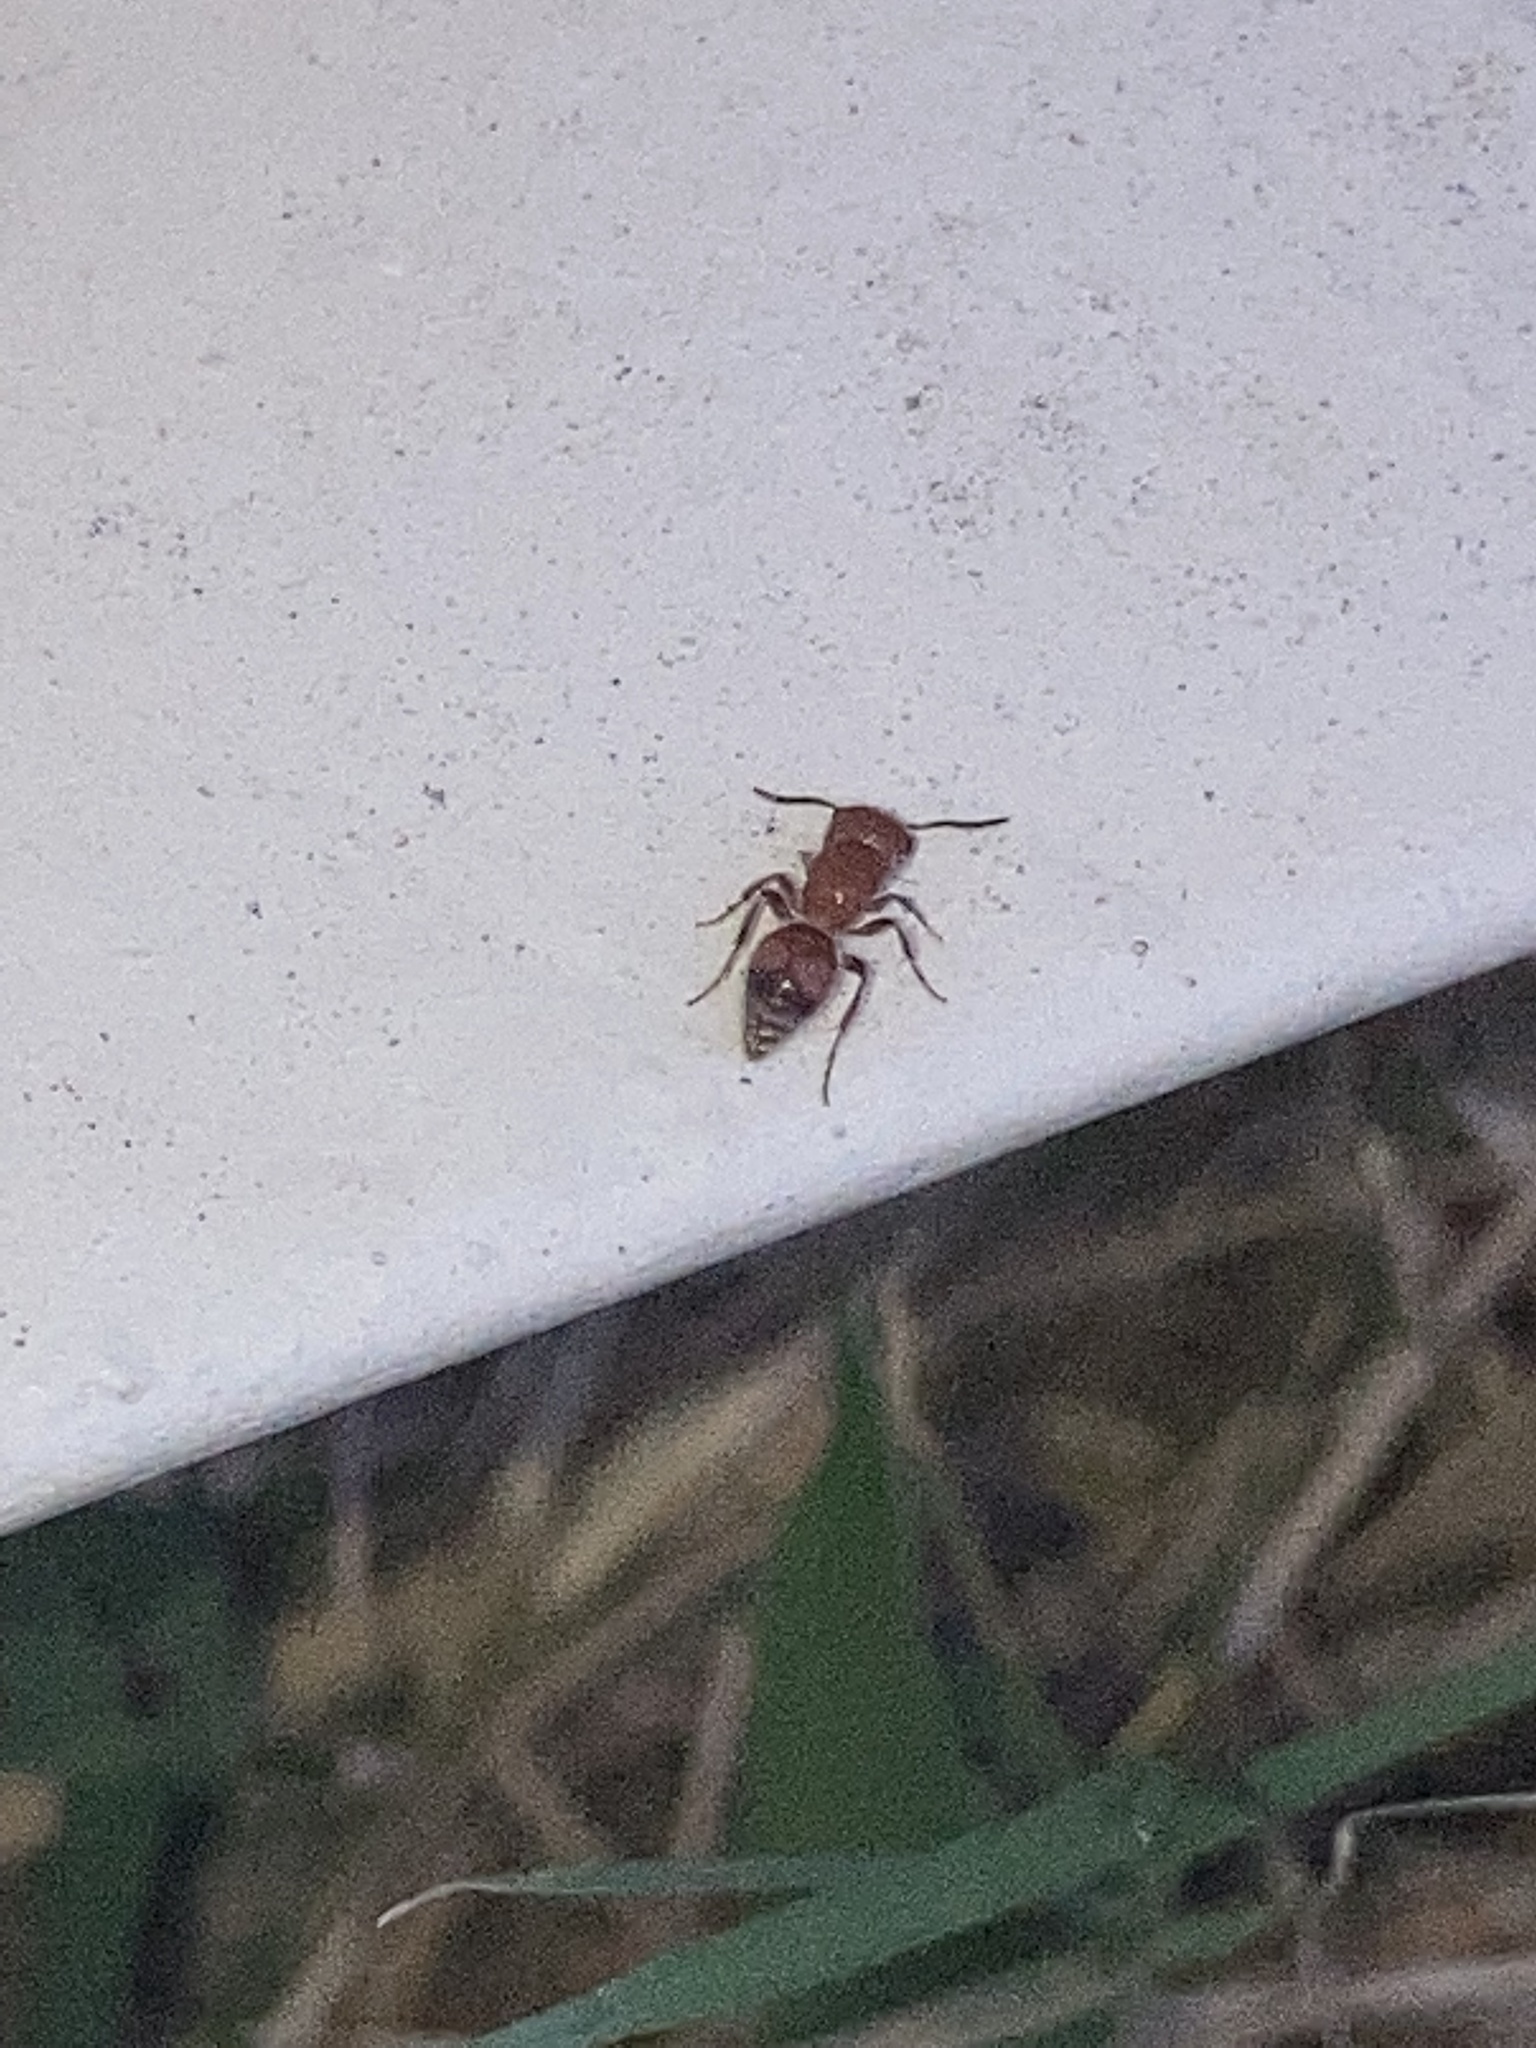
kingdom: Animalia
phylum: Arthropoda
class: Insecta
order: Hymenoptera
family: Mutillidae
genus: Pseudomethoca
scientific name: Pseudomethoca
